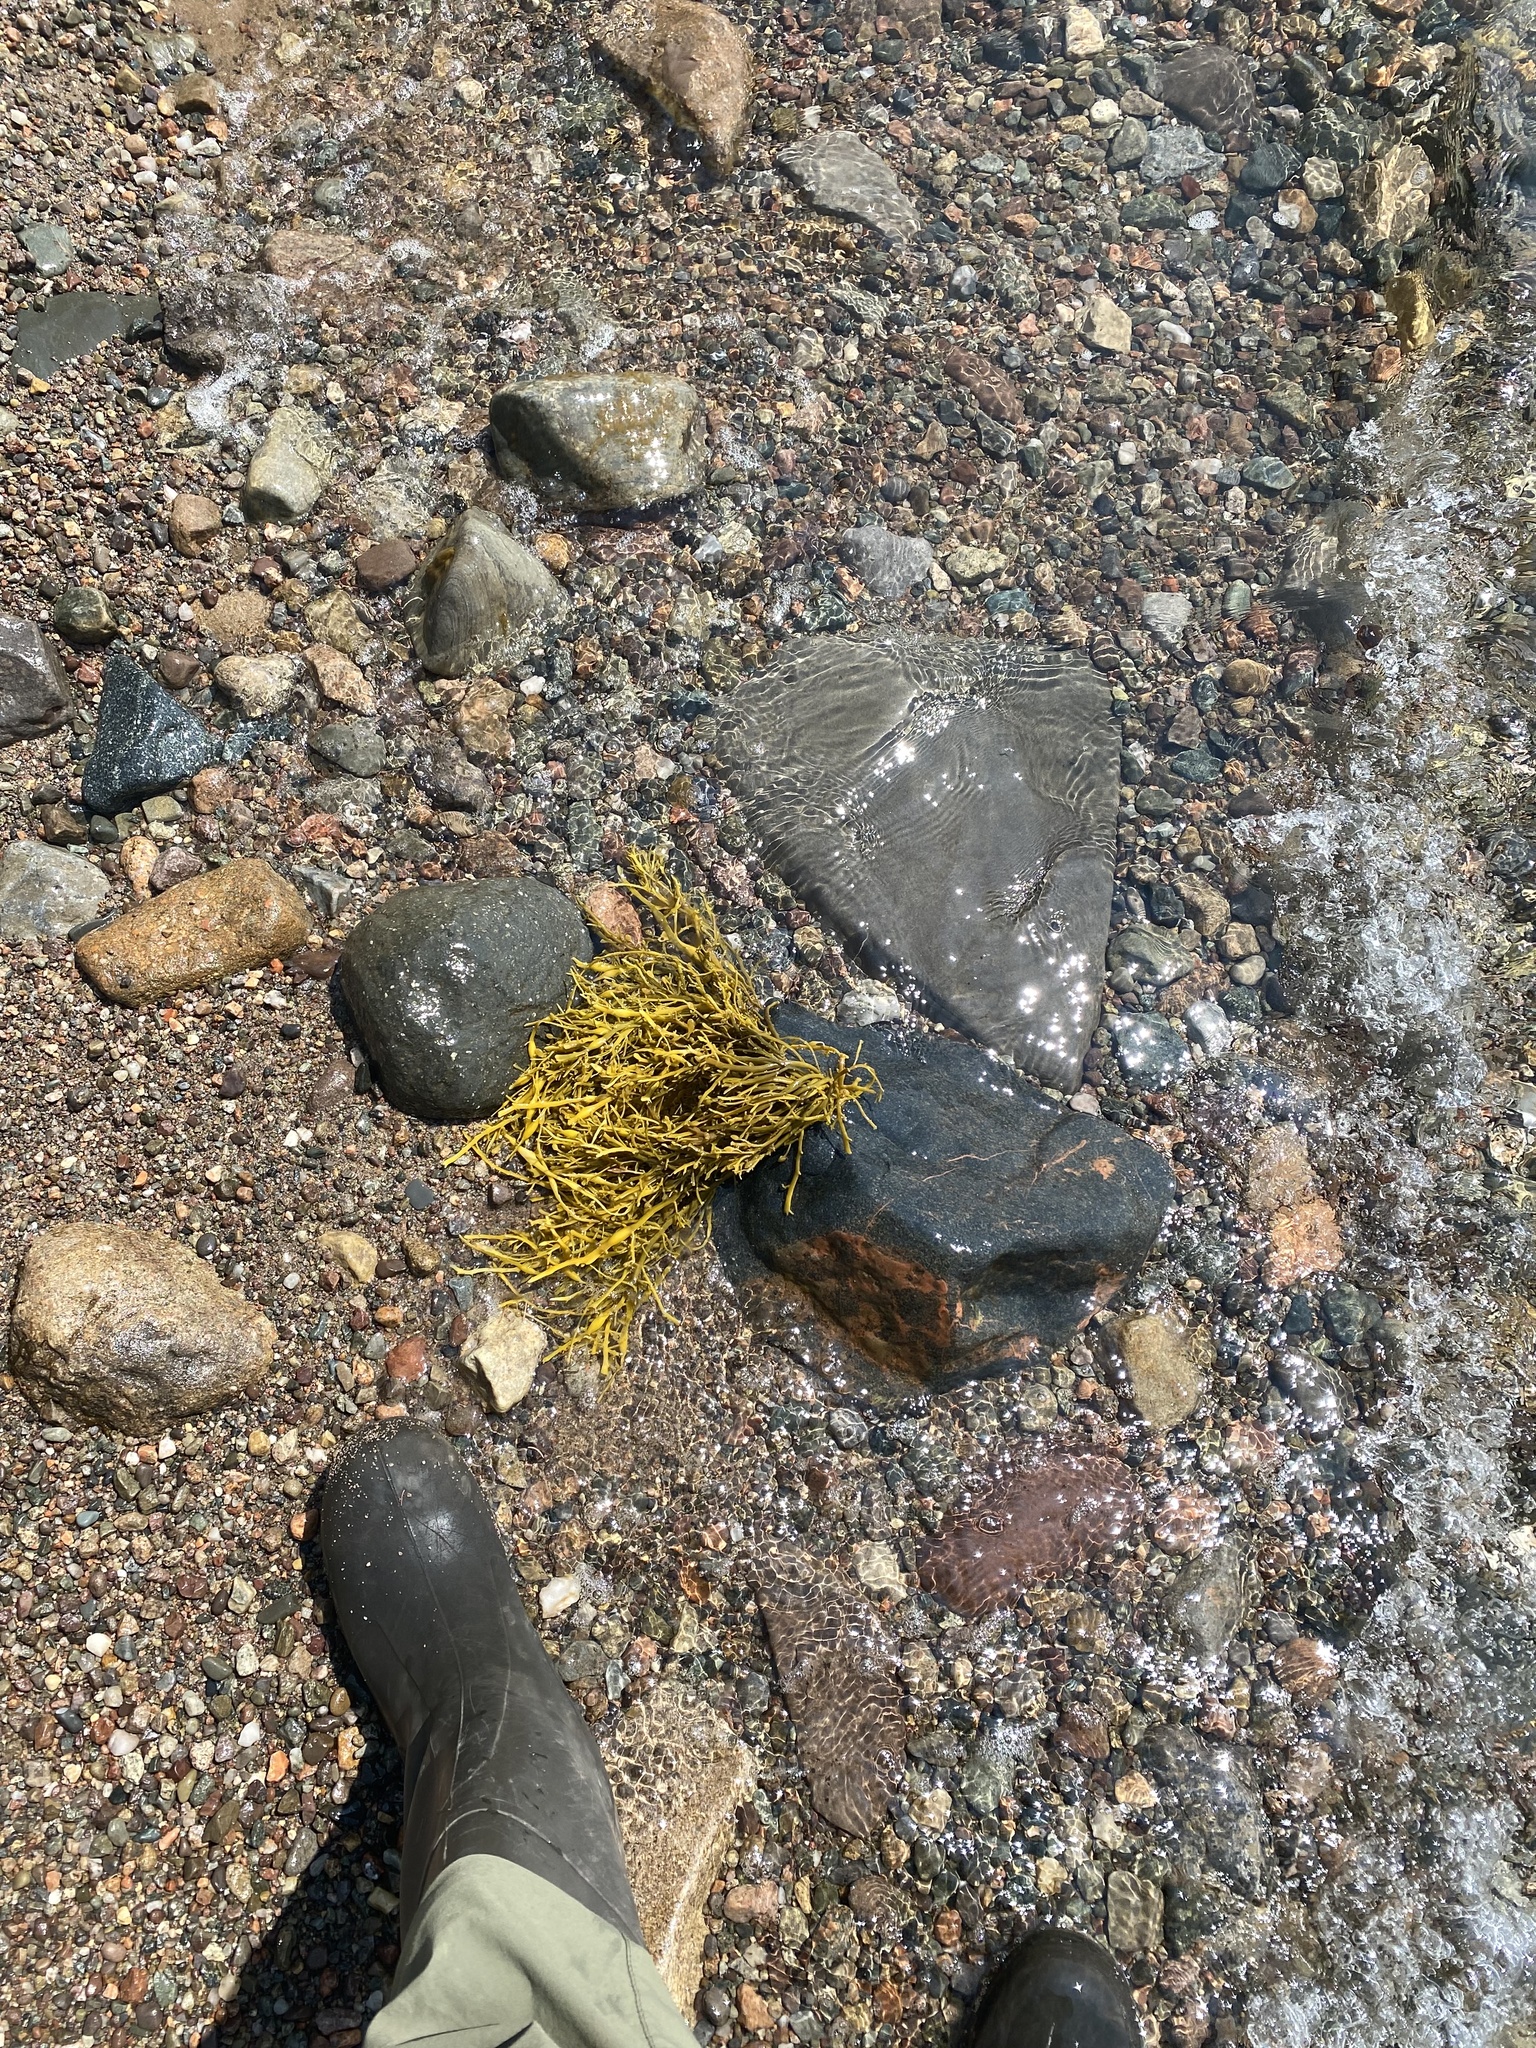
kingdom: Chromista
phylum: Ochrophyta
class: Phaeophyceae
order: Fucales
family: Fucaceae
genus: Ascophyllum
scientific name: Ascophyllum nodosum
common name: Knotted wrack
